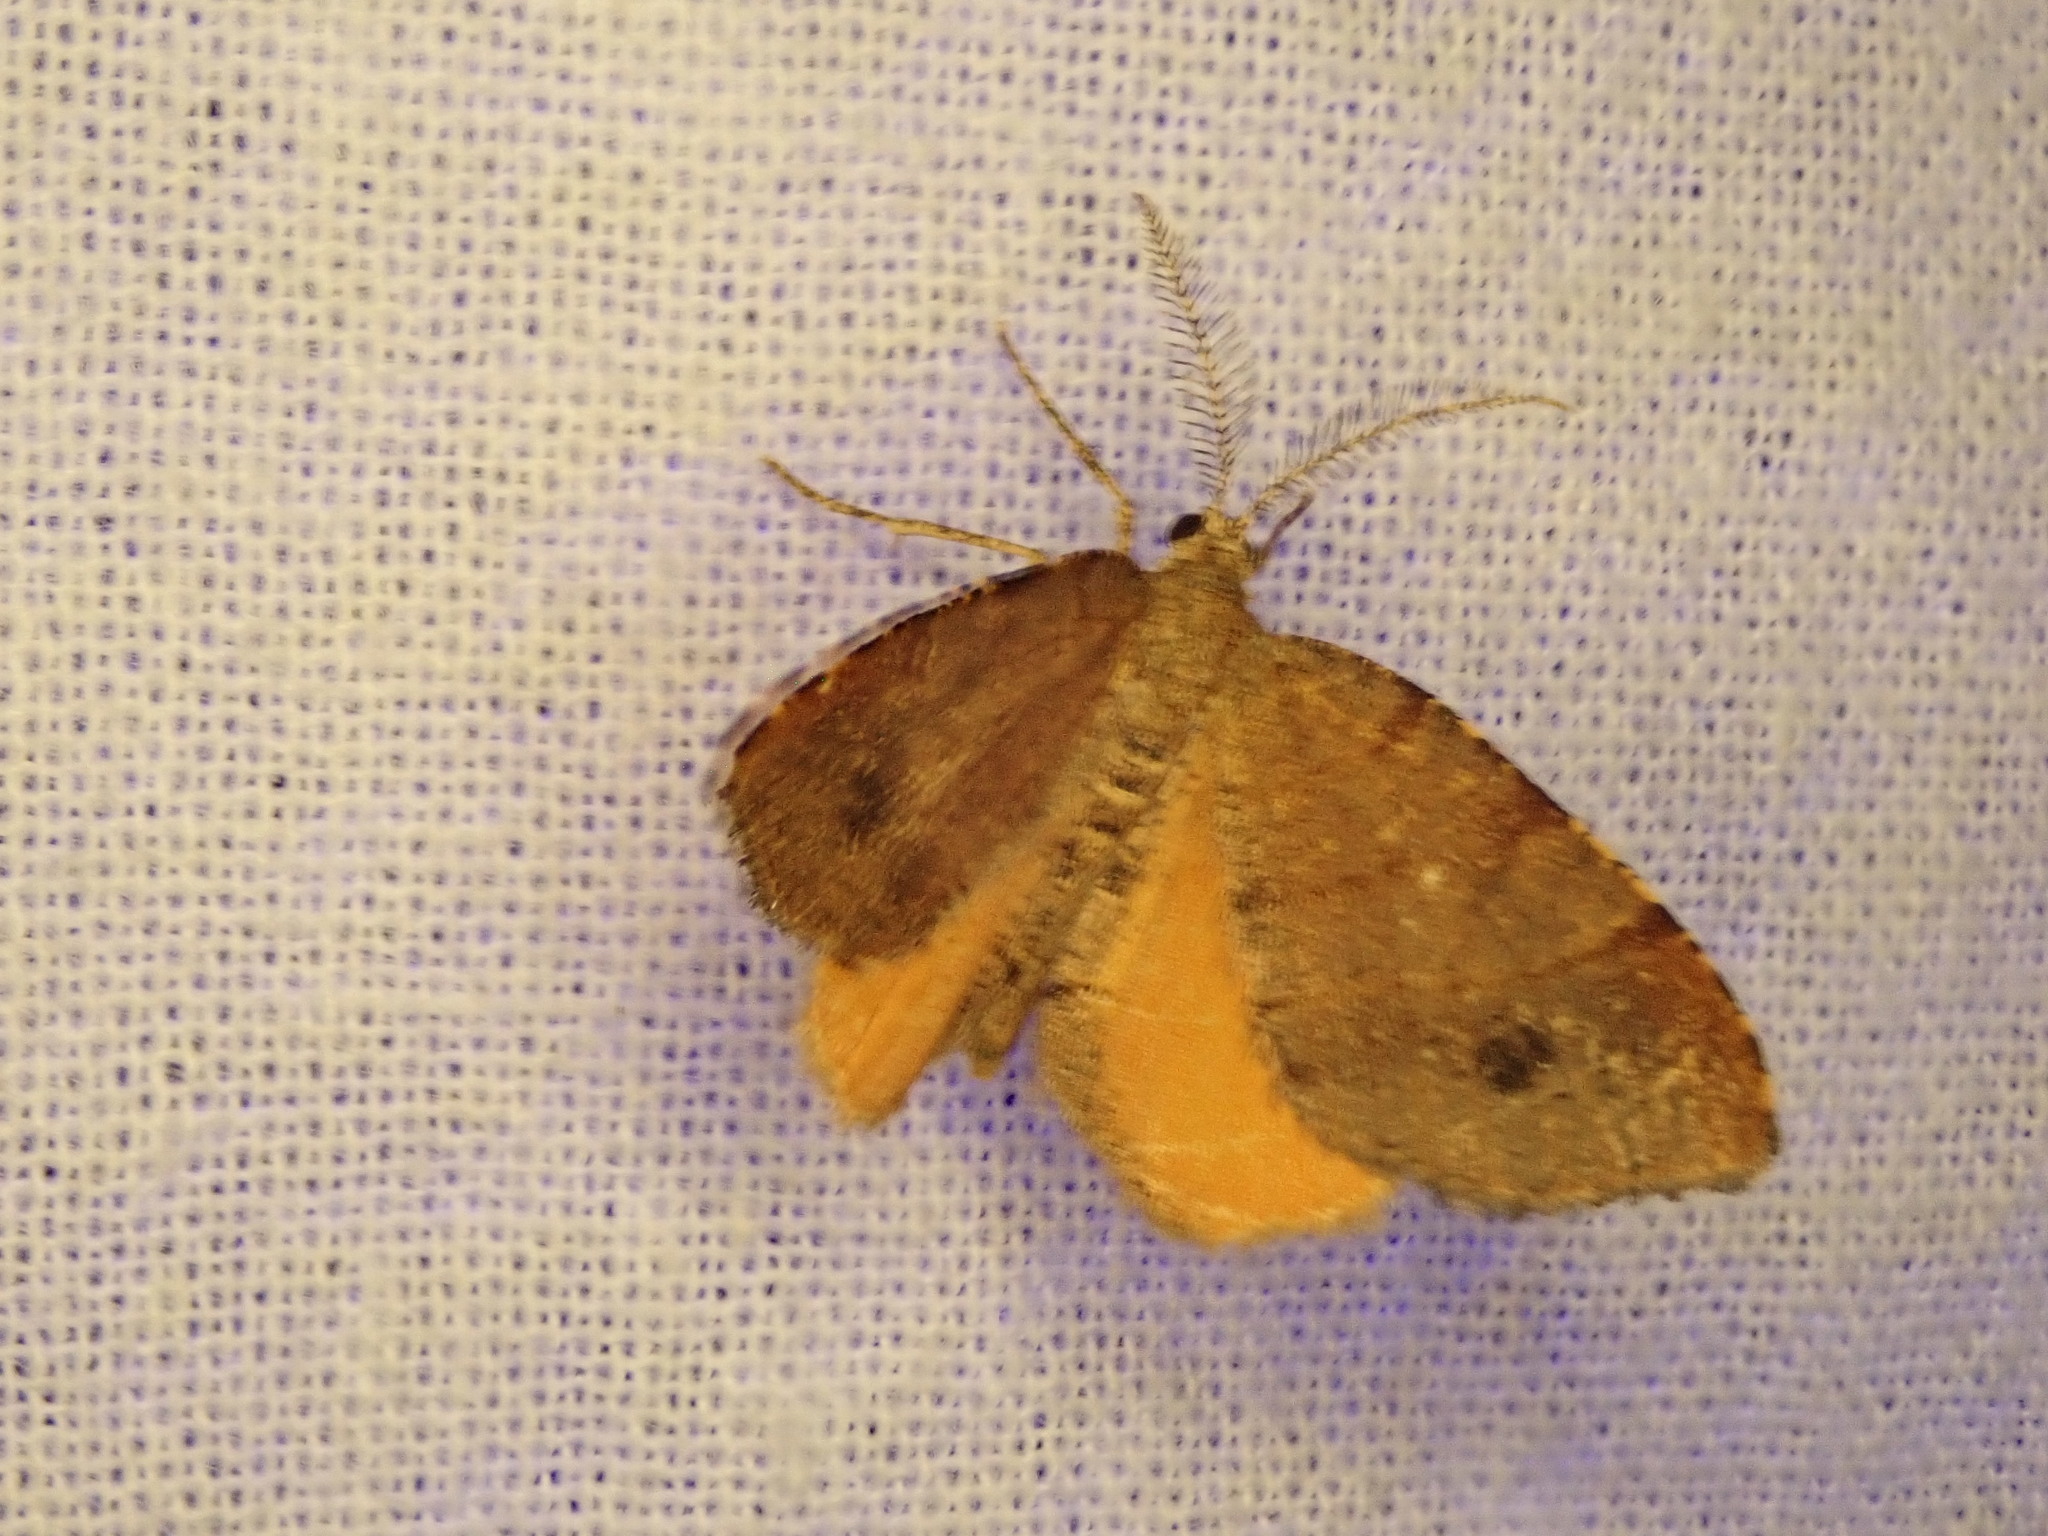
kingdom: Animalia
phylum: Arthropoda
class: Insecta
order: Lepidoptera
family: Geometridae
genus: Mellilla
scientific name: Mellilla xanthometata
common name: Orange wing moth
